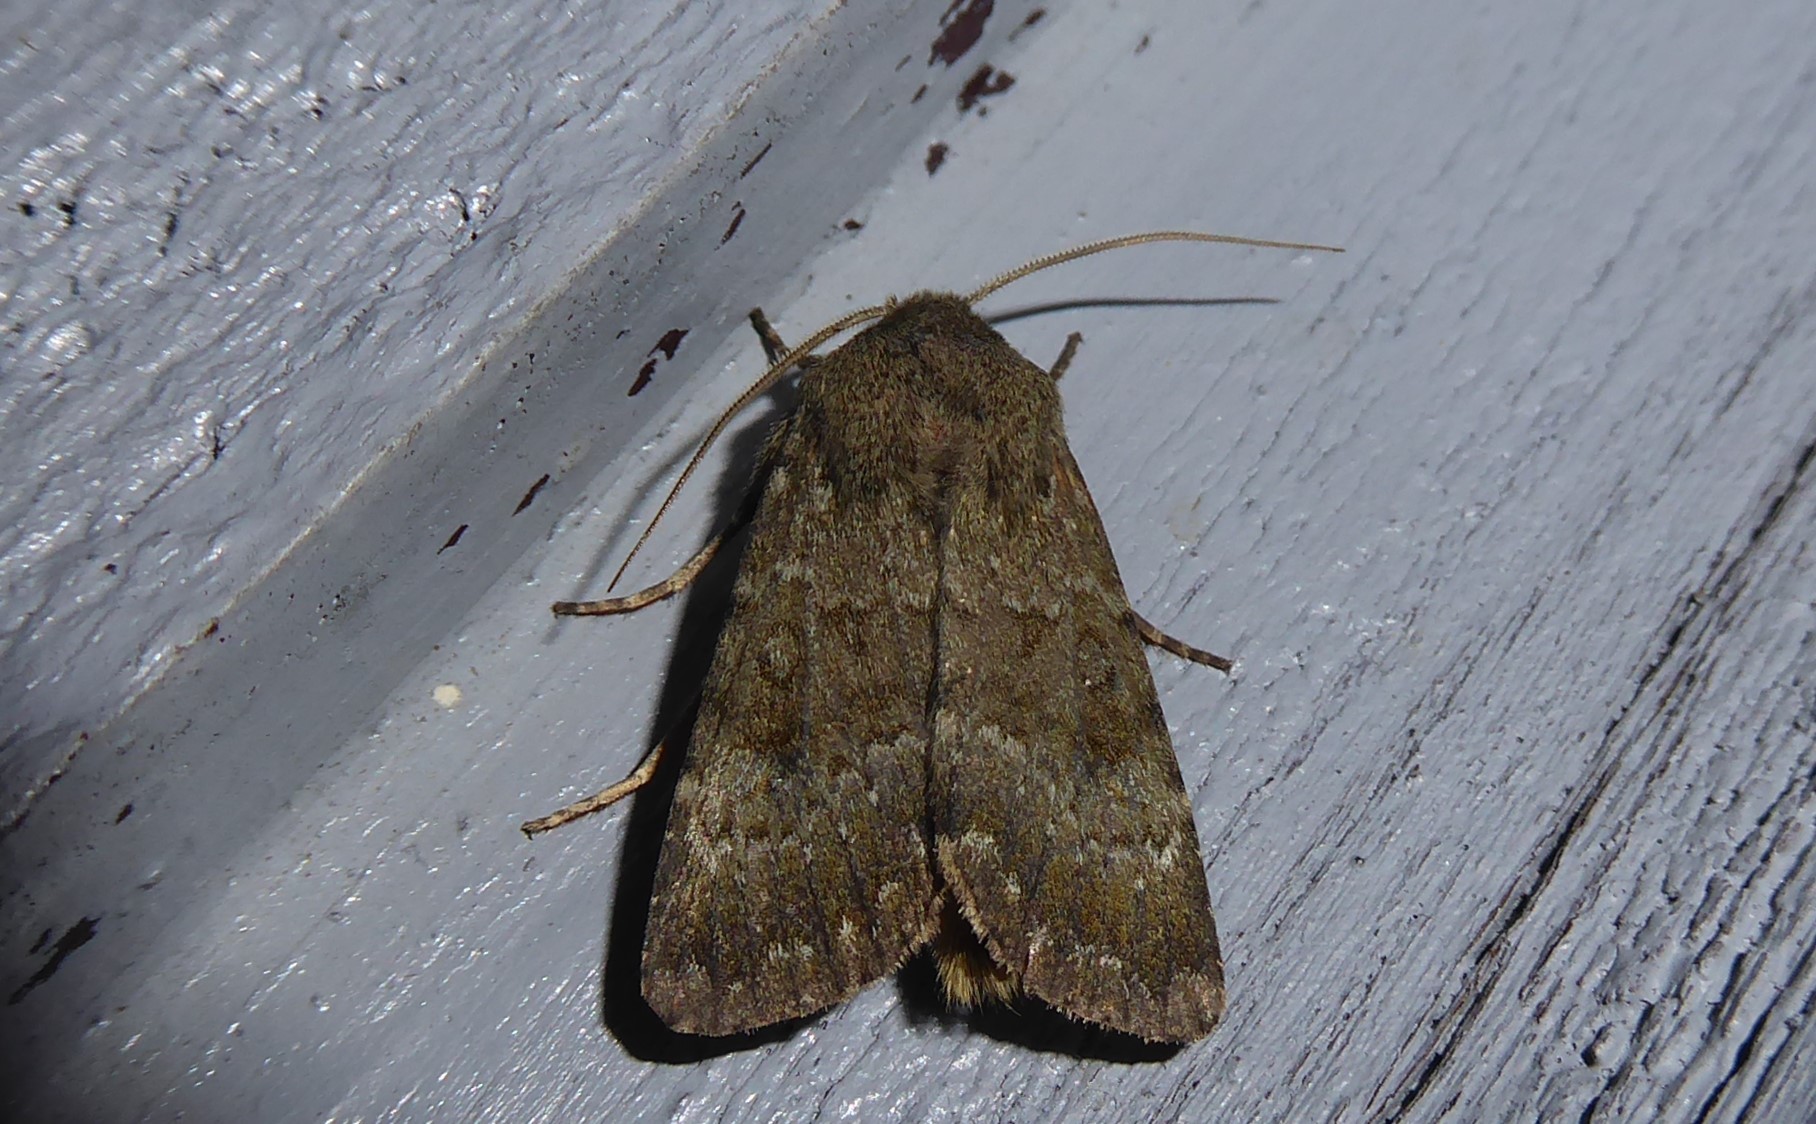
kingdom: Animalia
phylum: Arthropoda
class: Insecta
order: Lepidoptera
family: Noctuidae
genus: Ichneutica
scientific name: Ichneutica moderata
